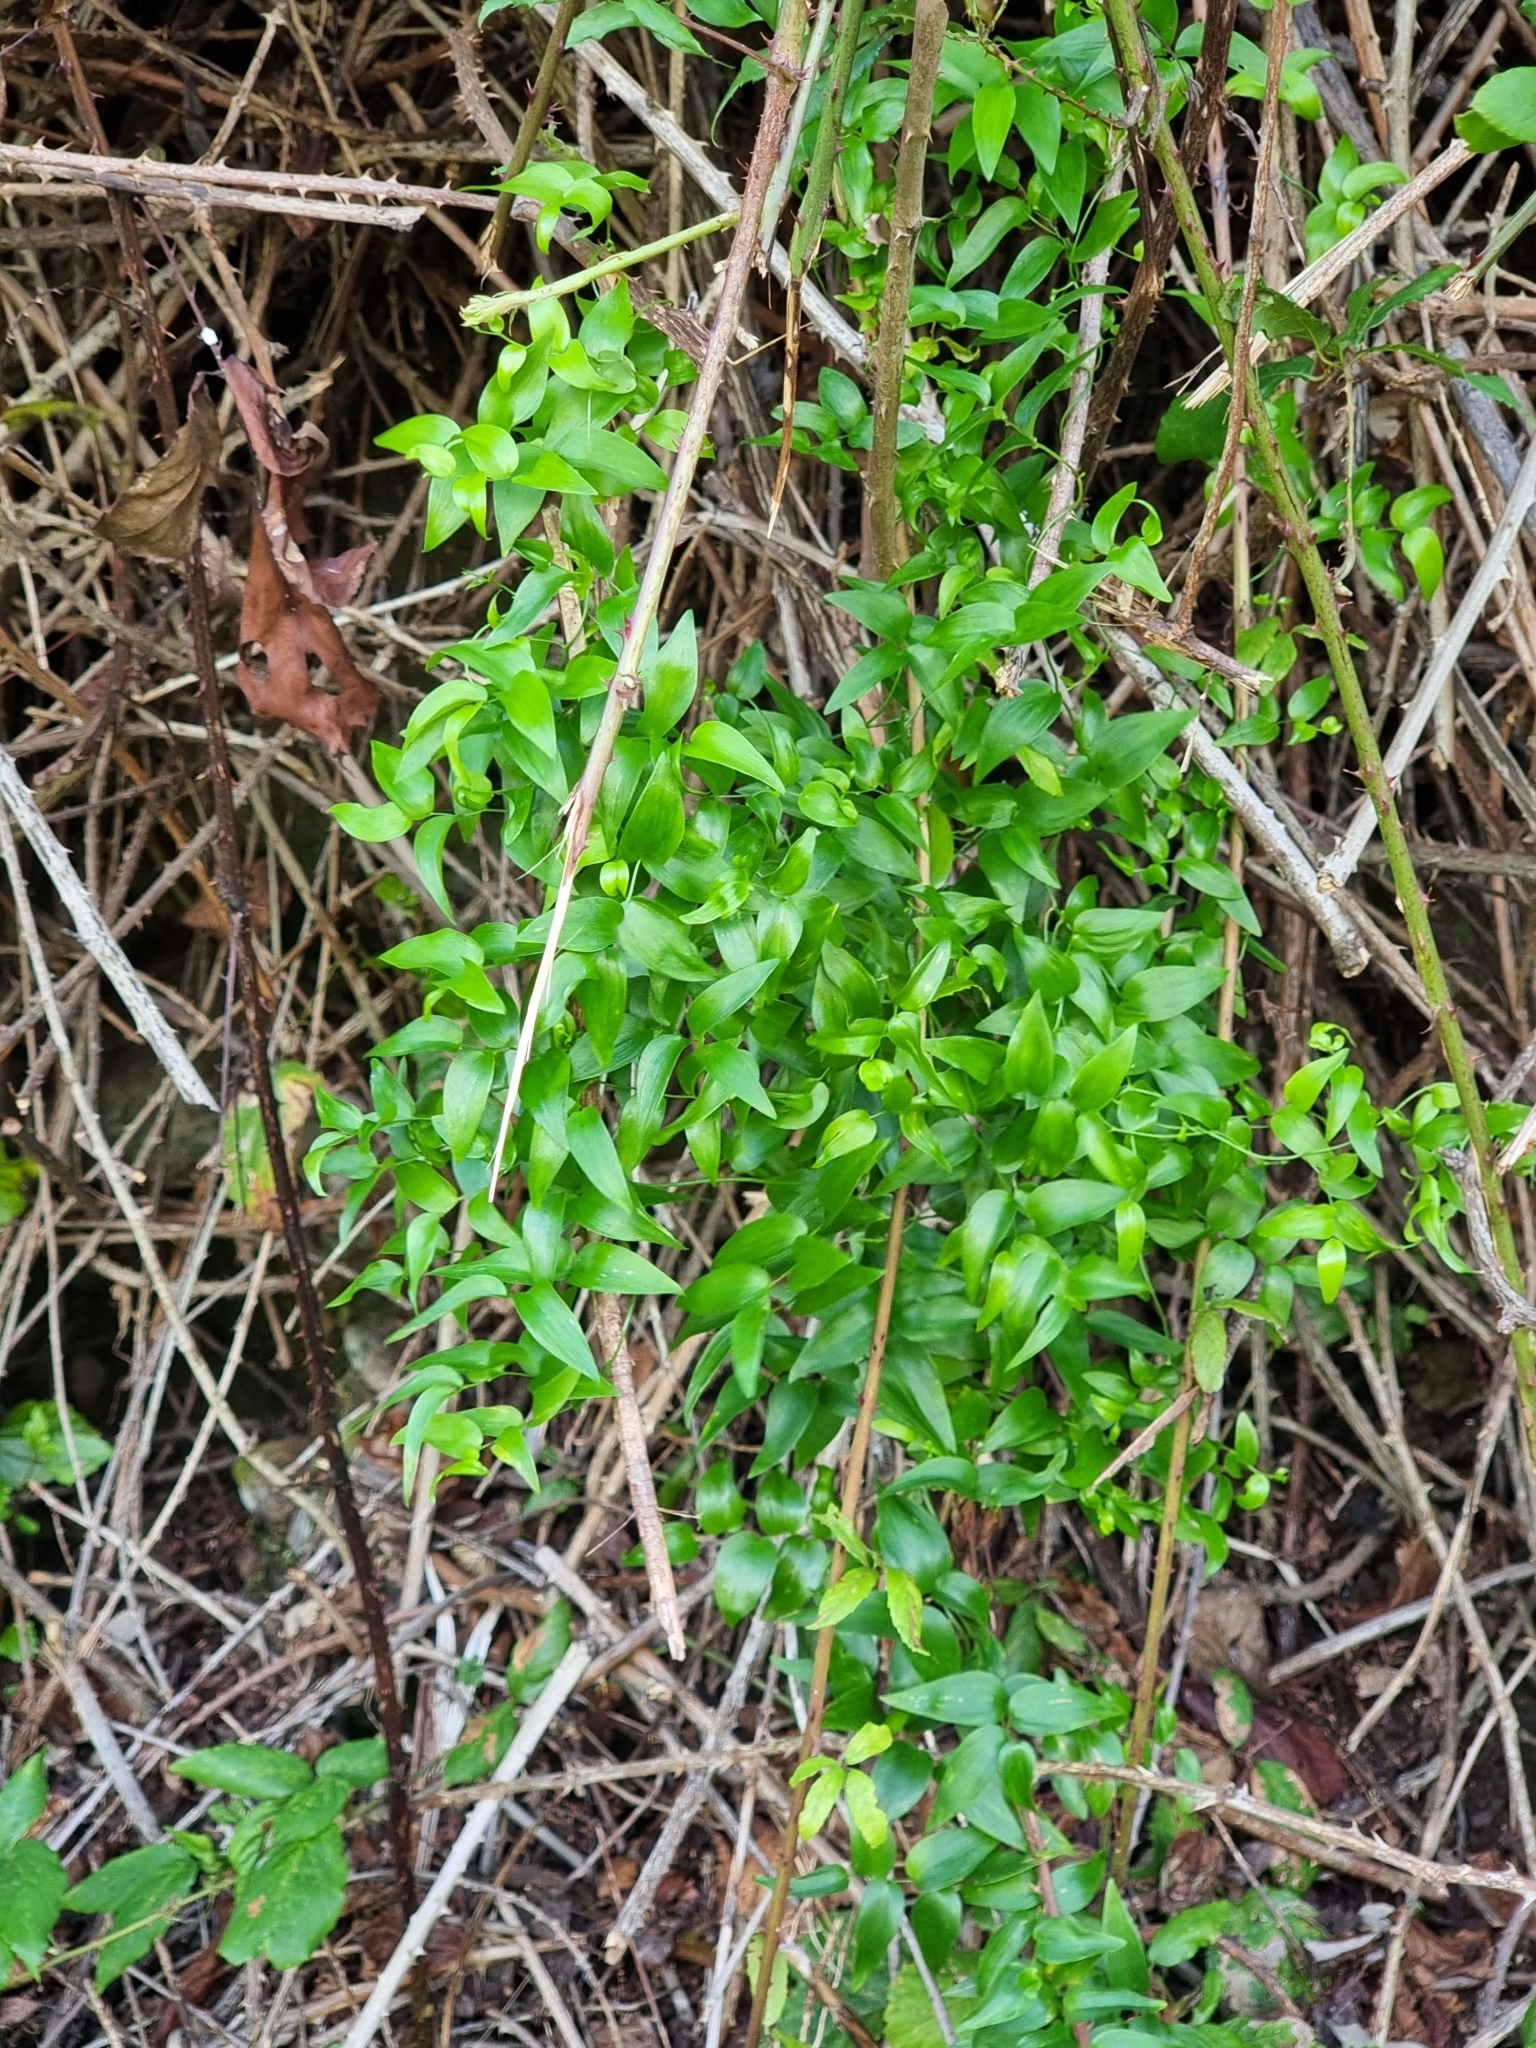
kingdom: Plantae
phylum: Tracheophyta
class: Liliopsida
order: Asparagales
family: Asparagaceae
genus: Asparagus
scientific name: Asparagus asparagoides
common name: African asparagus fern
